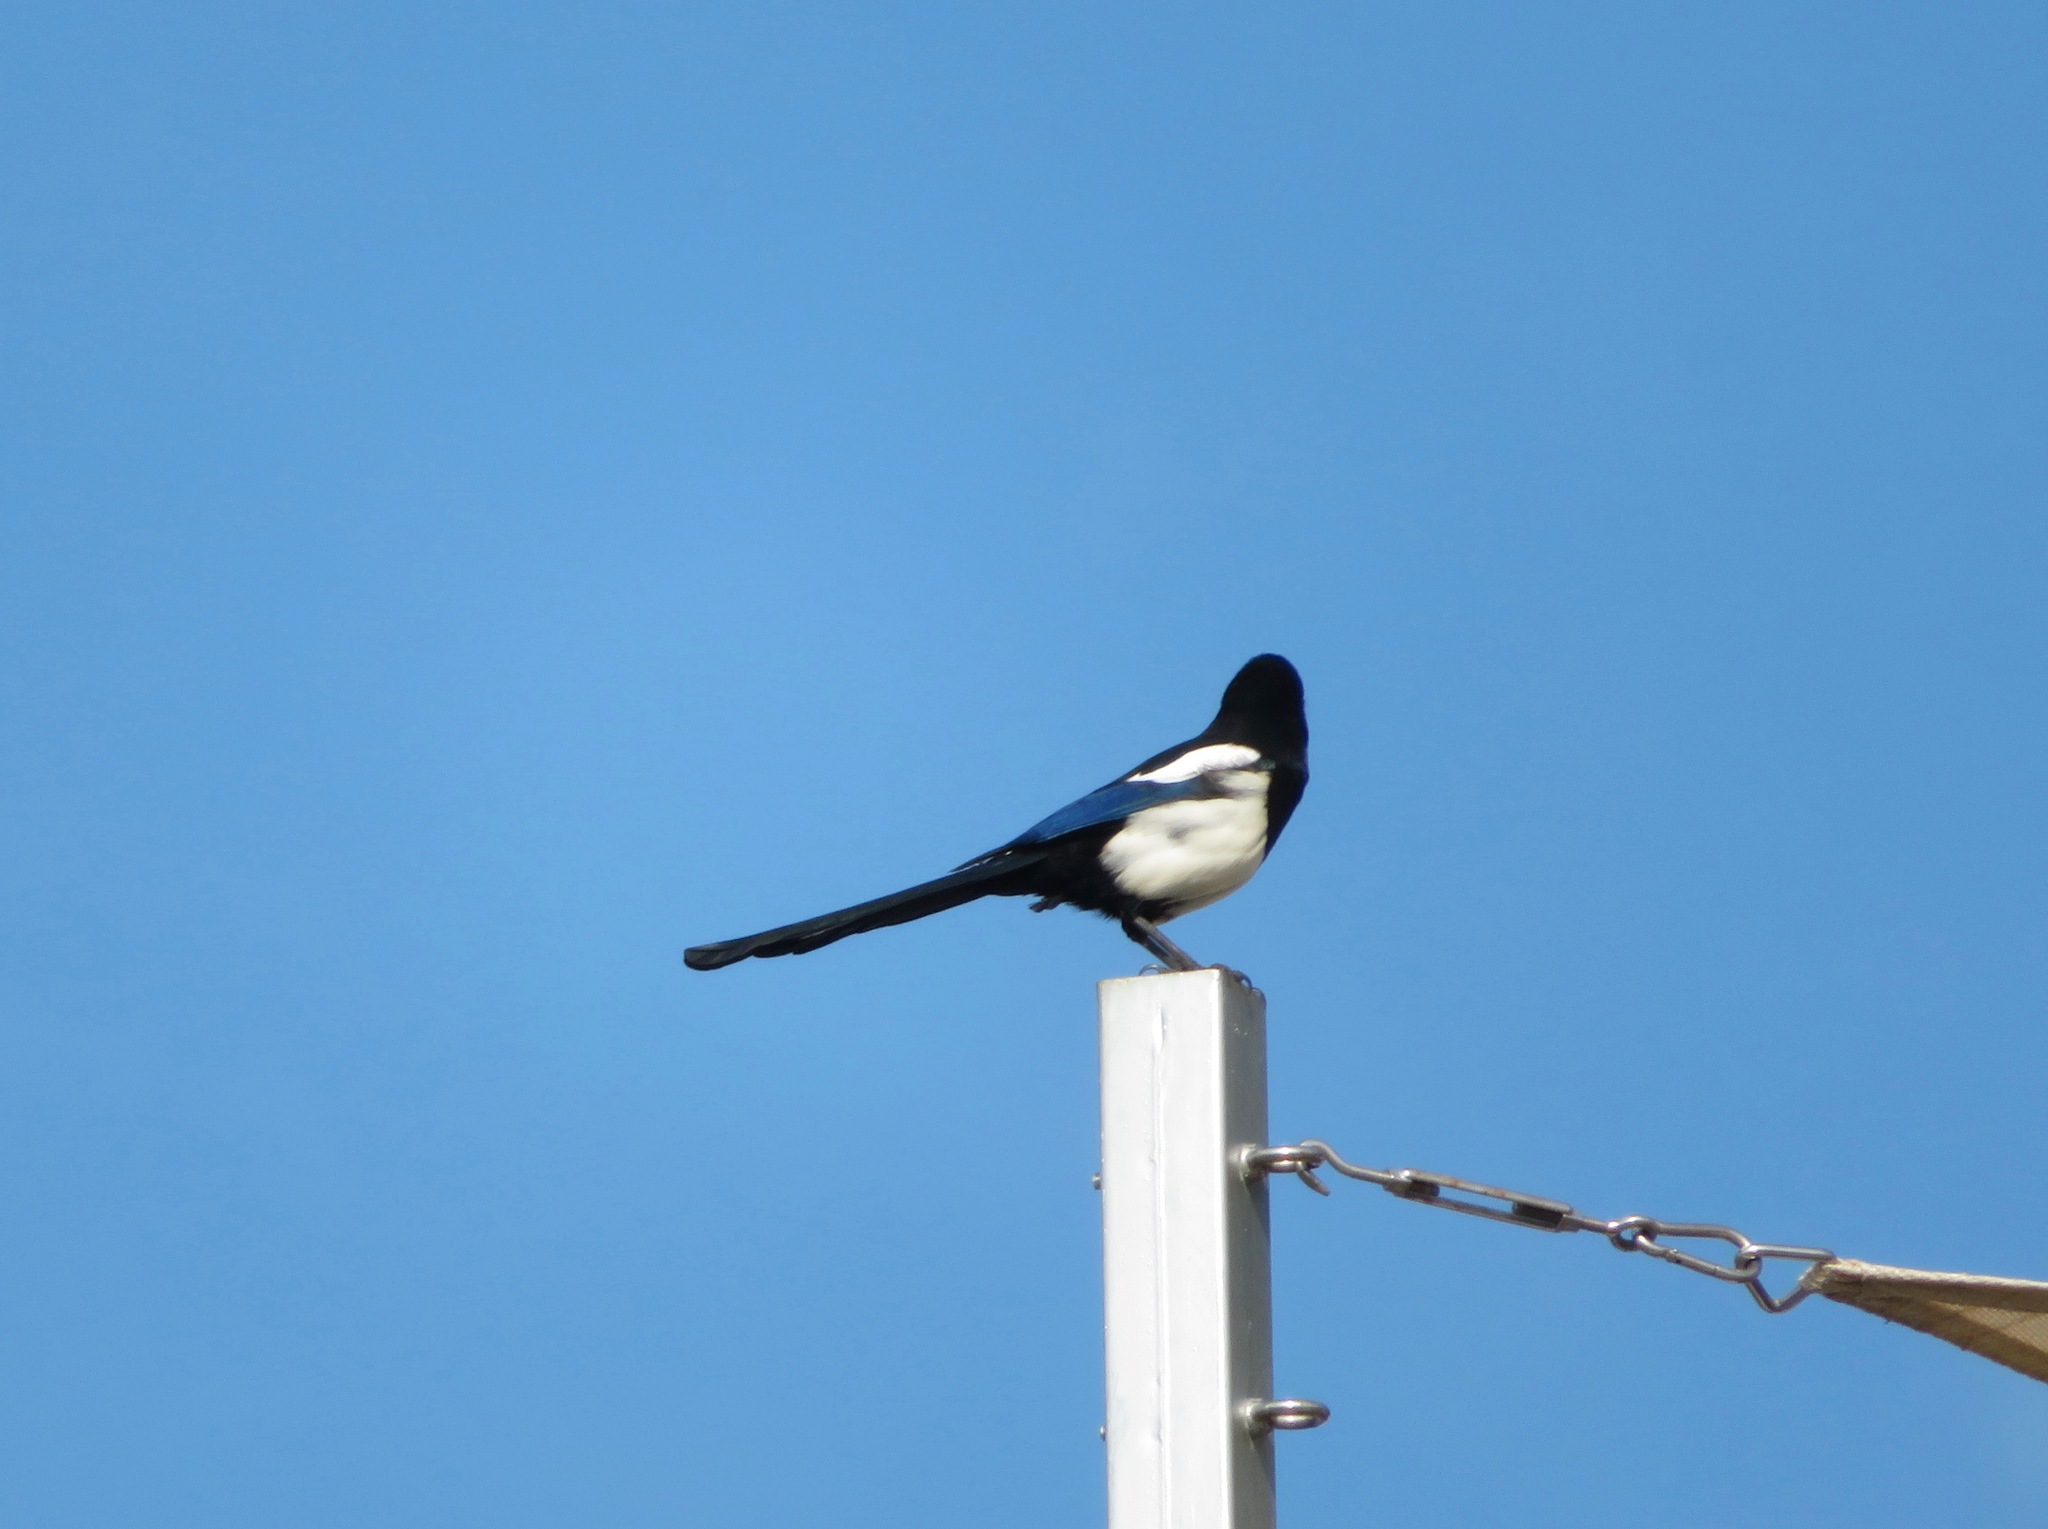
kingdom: Animalia
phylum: Chordata
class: Aves
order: Passeriformes
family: Corvidae
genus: Pica
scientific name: Pica serica
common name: Oriental magpie
